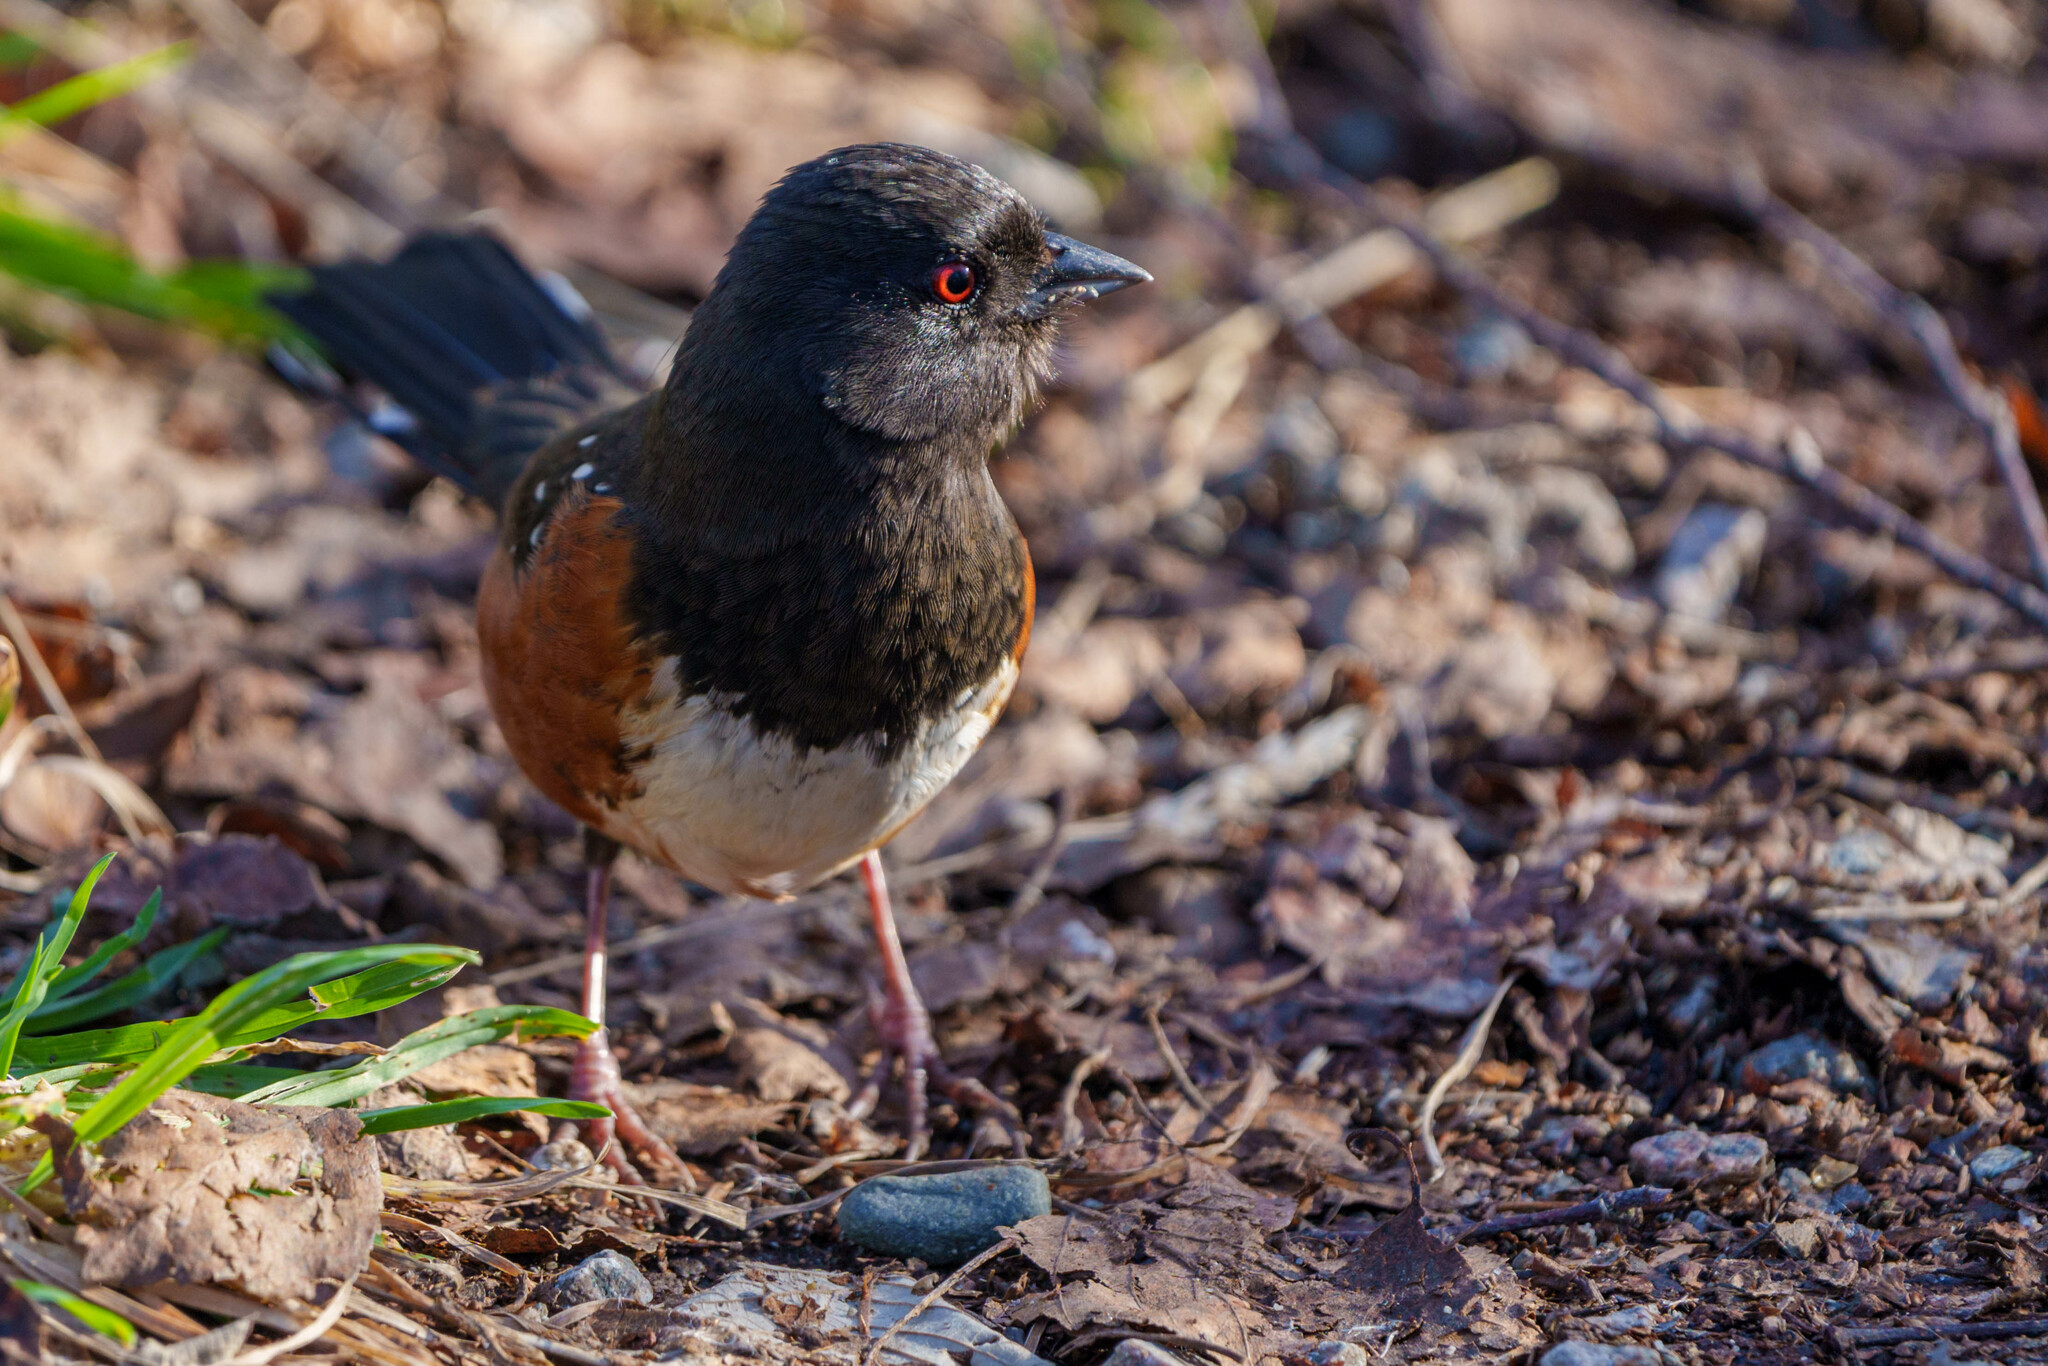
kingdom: Animalia
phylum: Chordata
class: Aves
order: Passeriformes
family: Passerellidae
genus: Pipilo
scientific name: Pipilo maculatus
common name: Spotted towhee
